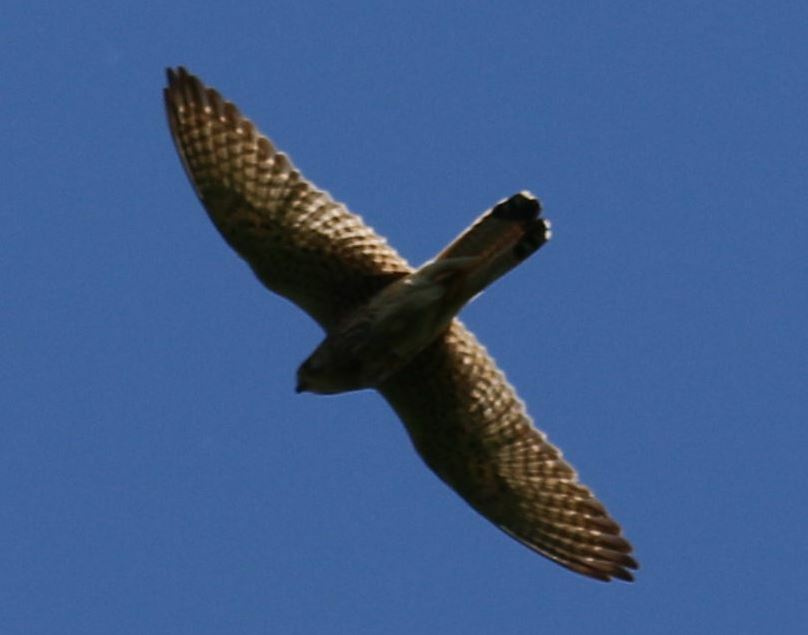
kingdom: Animalia
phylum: Chordata
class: Aves
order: Falconiformes
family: Falconidae
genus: Falco
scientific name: Falco tinnunculus
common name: Common kestrel
